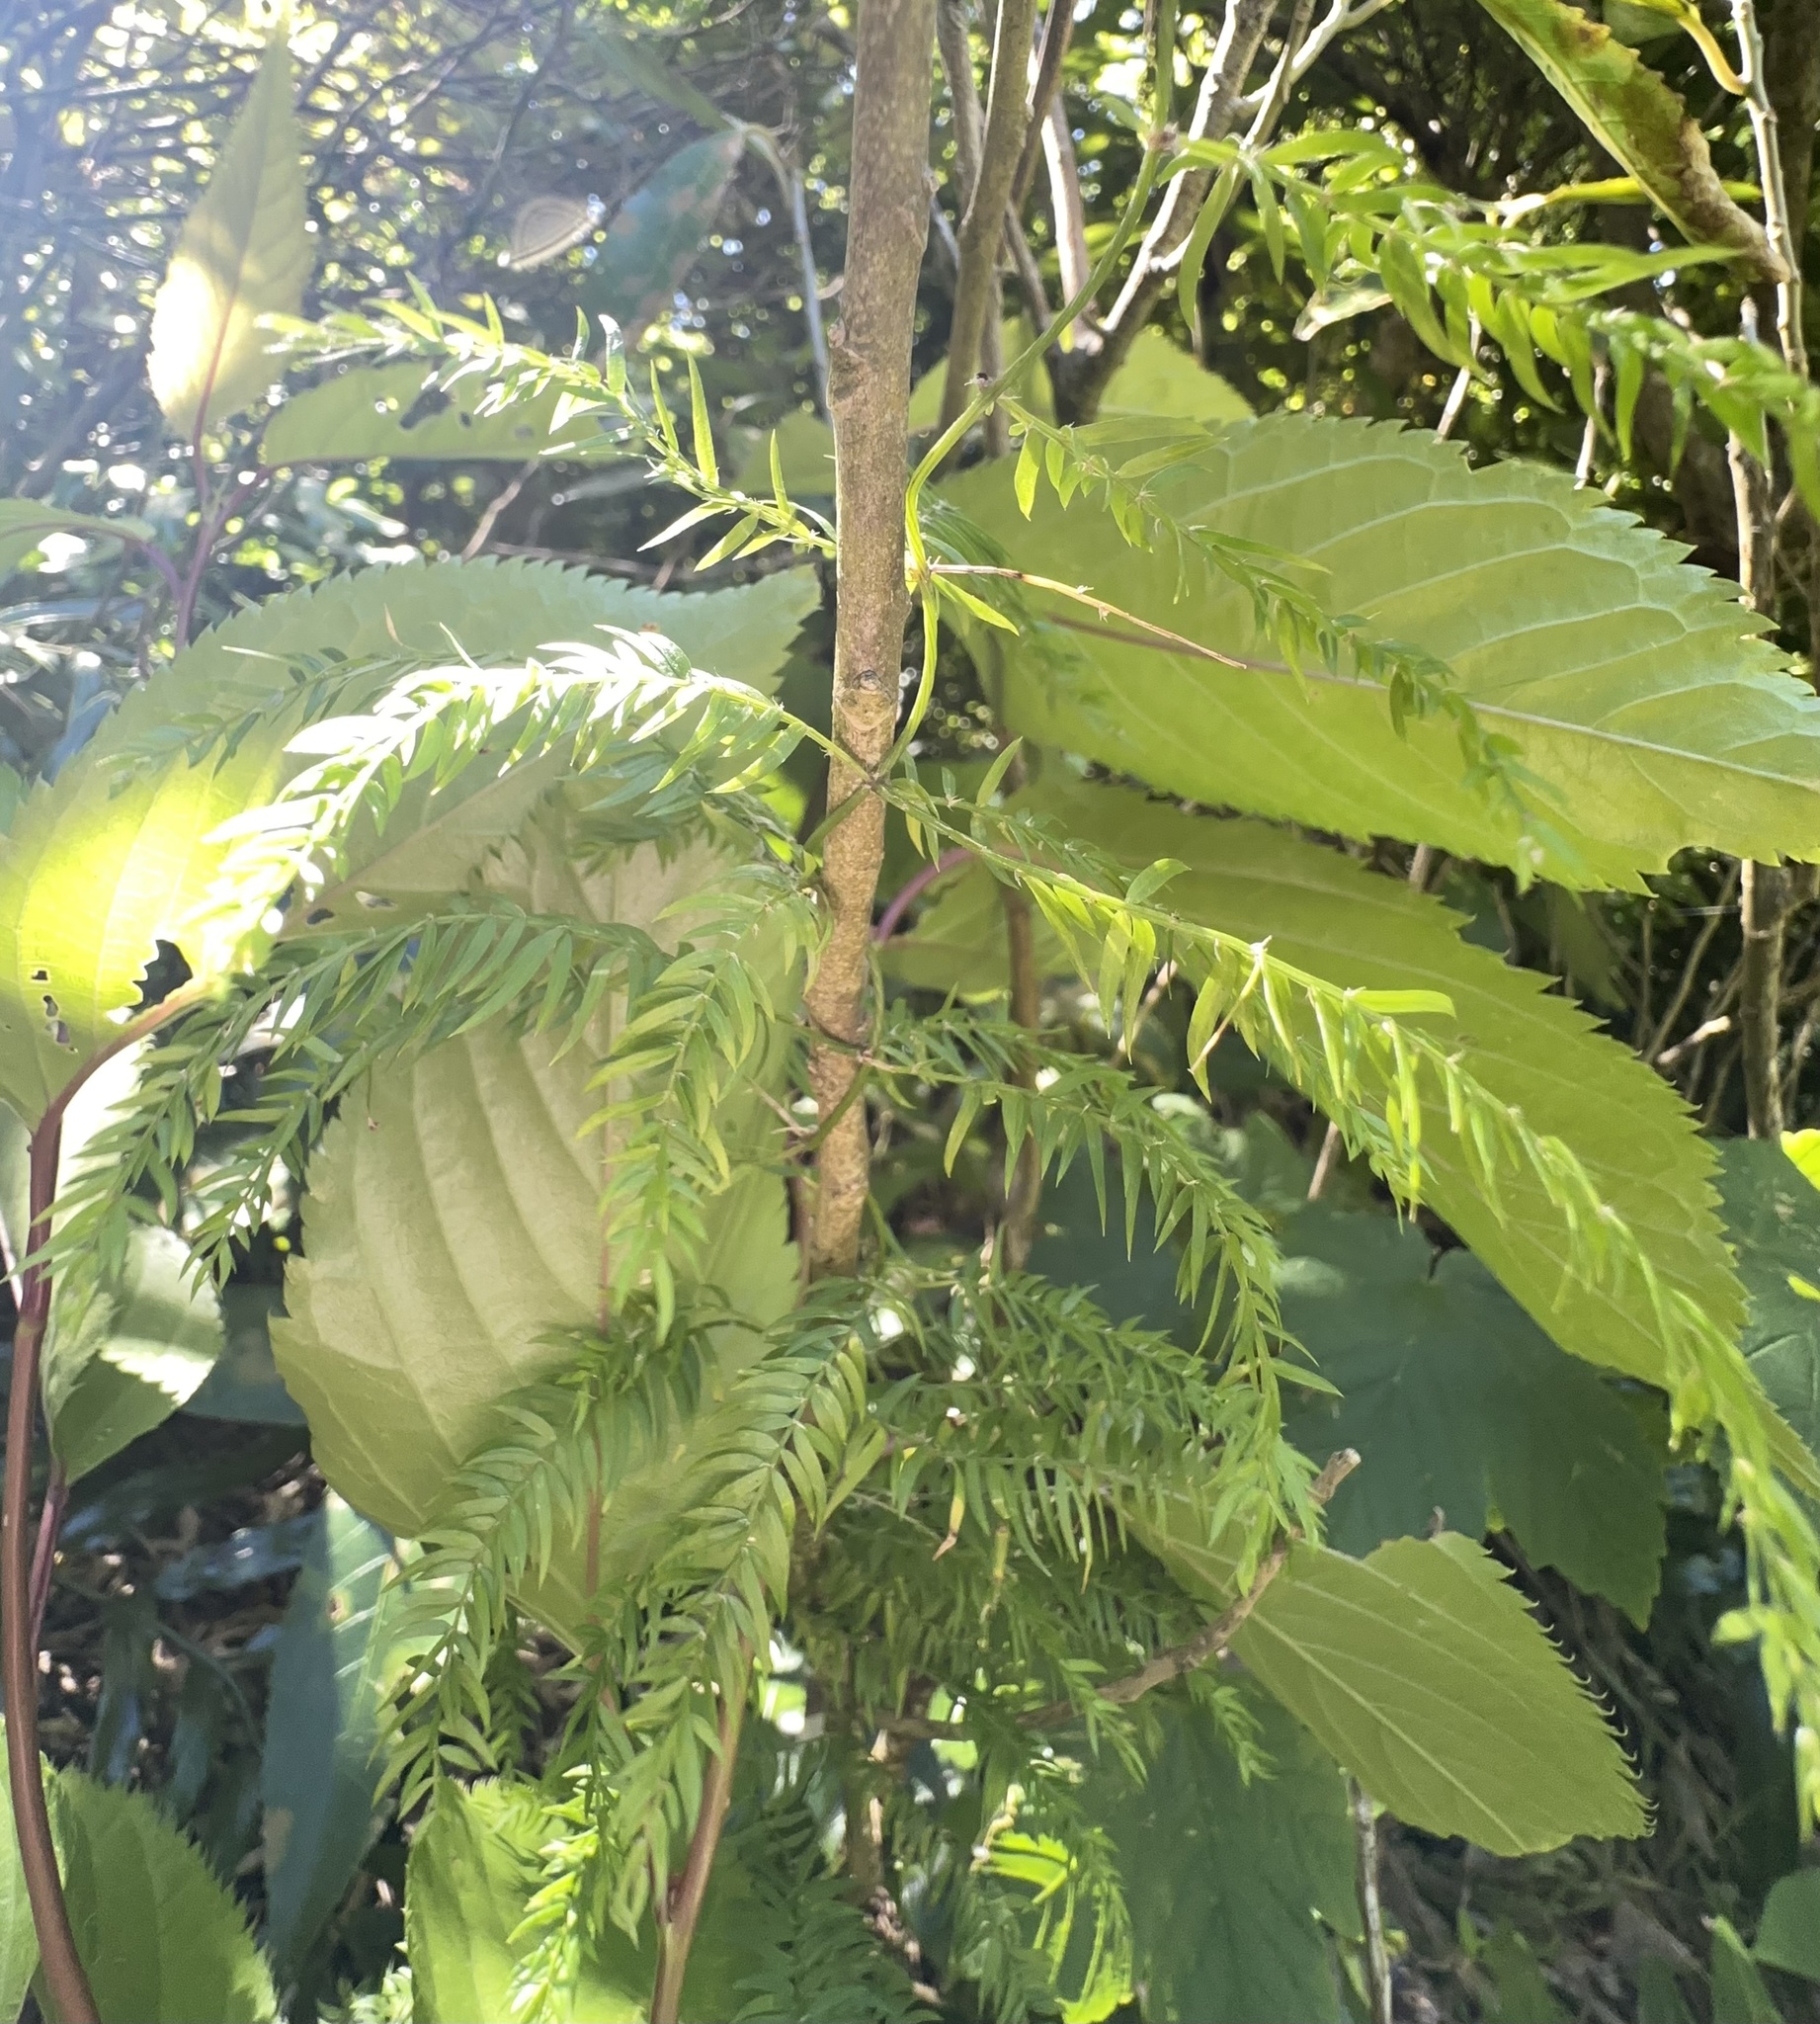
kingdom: Plantae
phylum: Tracheophyta
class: Liliopsida
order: Asparagales
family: Asparagaceae
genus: Asparagus
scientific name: Asparagus scandens
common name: Asparagus-fern
